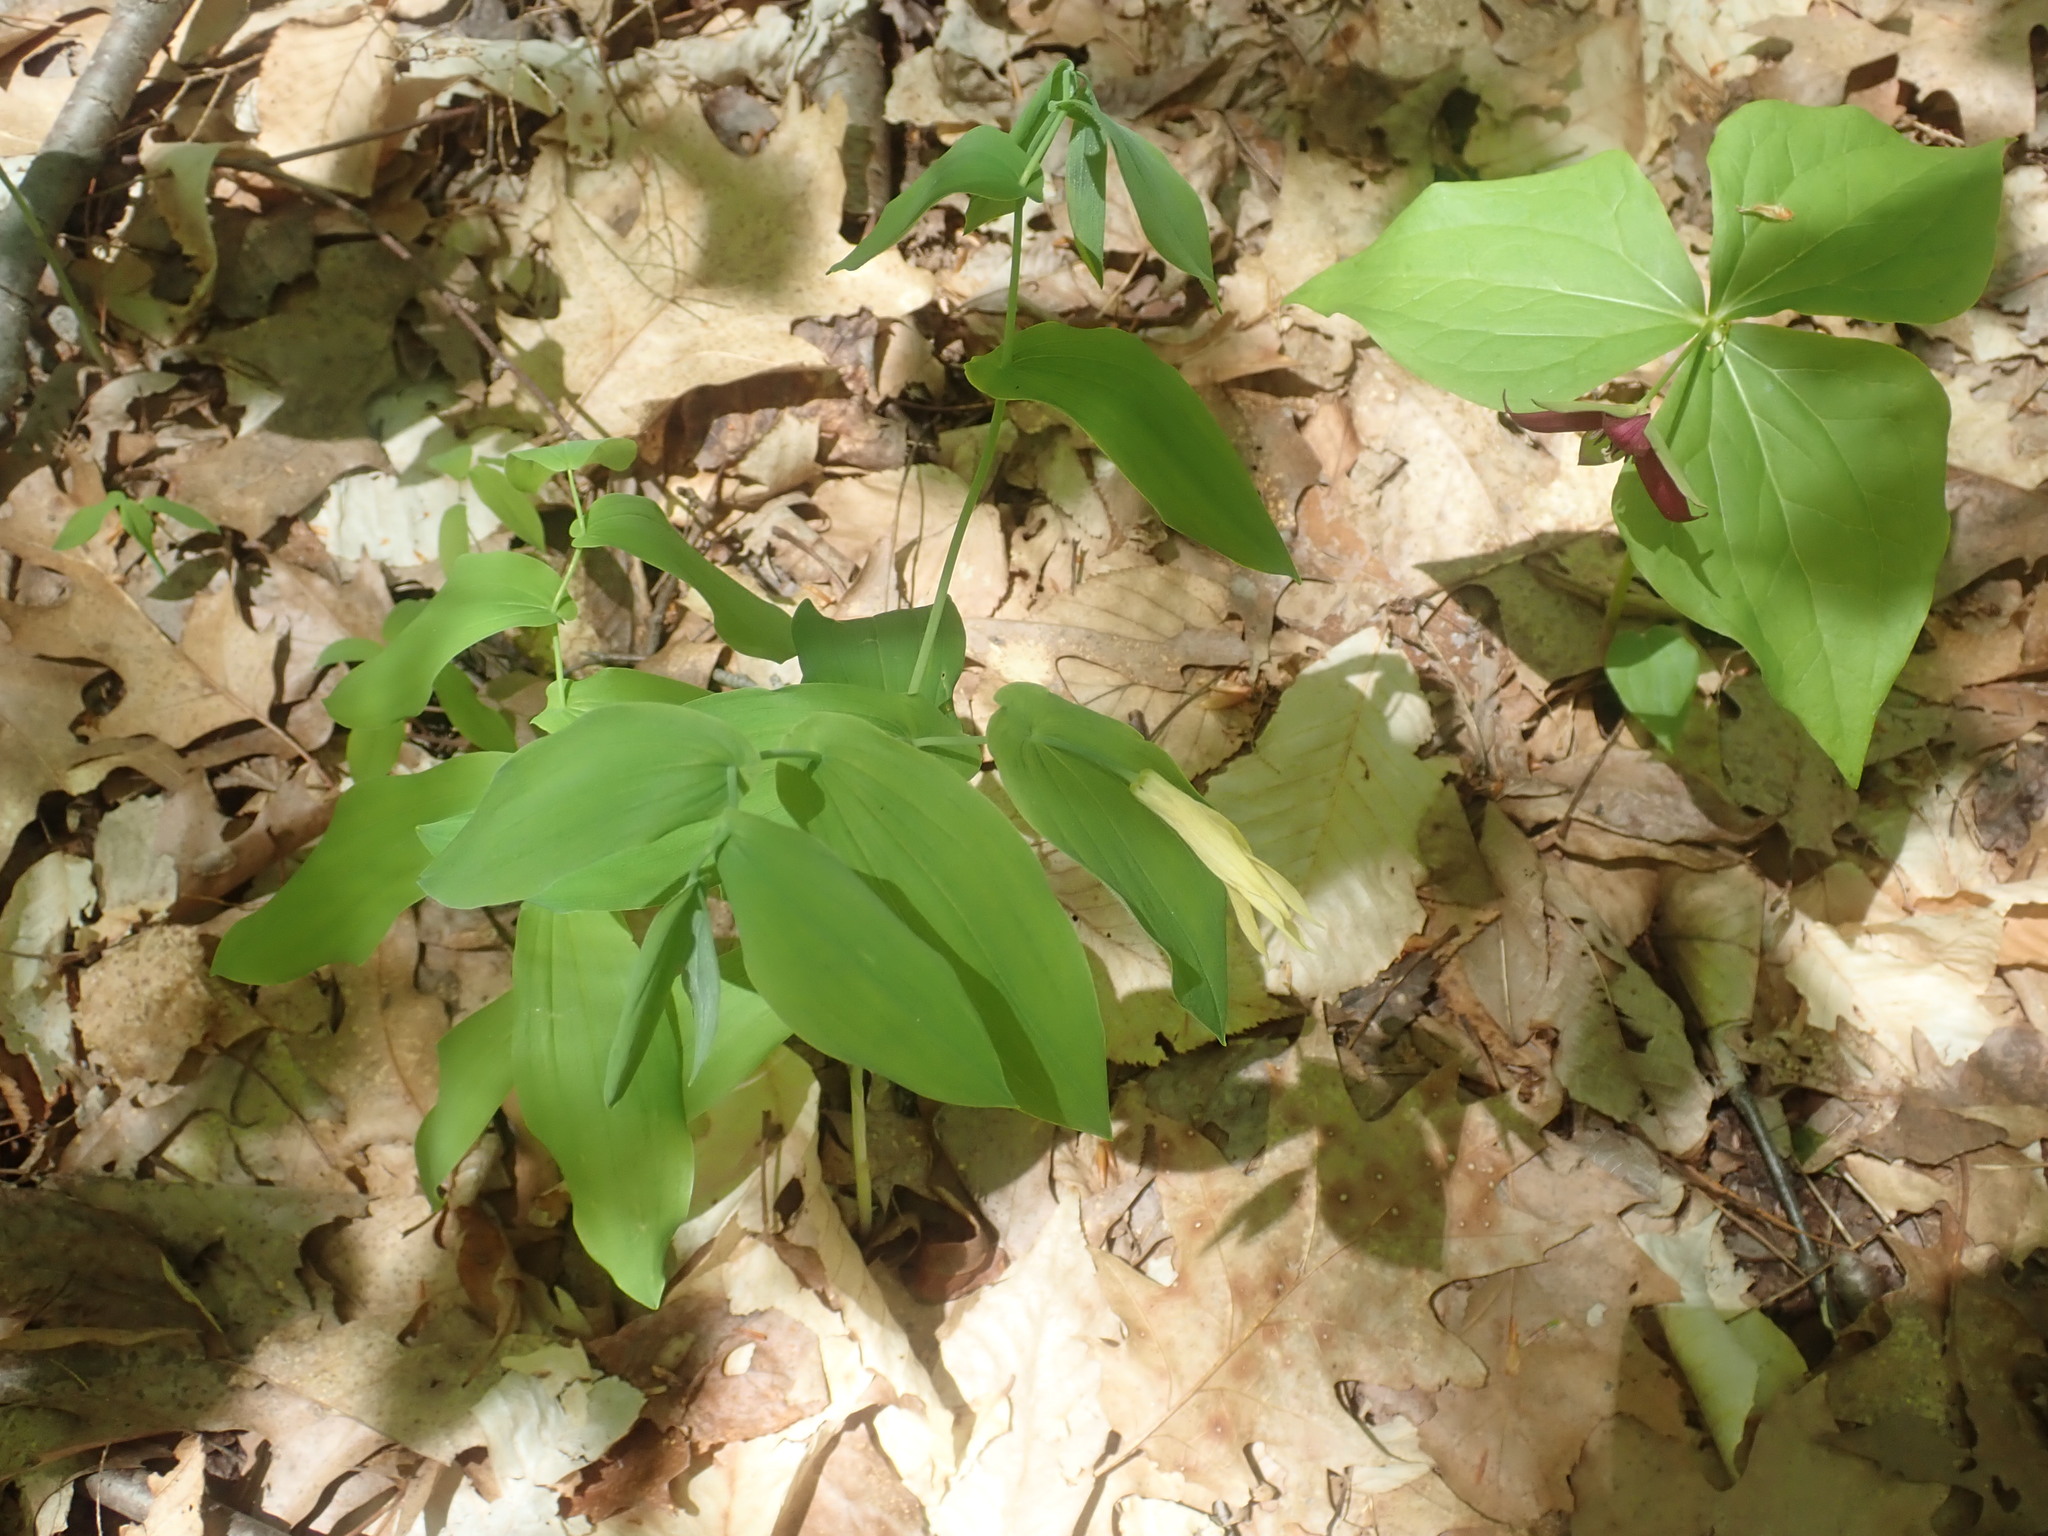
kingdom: Plantae
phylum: Tracheophyta
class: Liliopsida
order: Liliales
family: Colchicaceae
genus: Uvularia
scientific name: Uvularia grandiflora
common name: Bellwort
